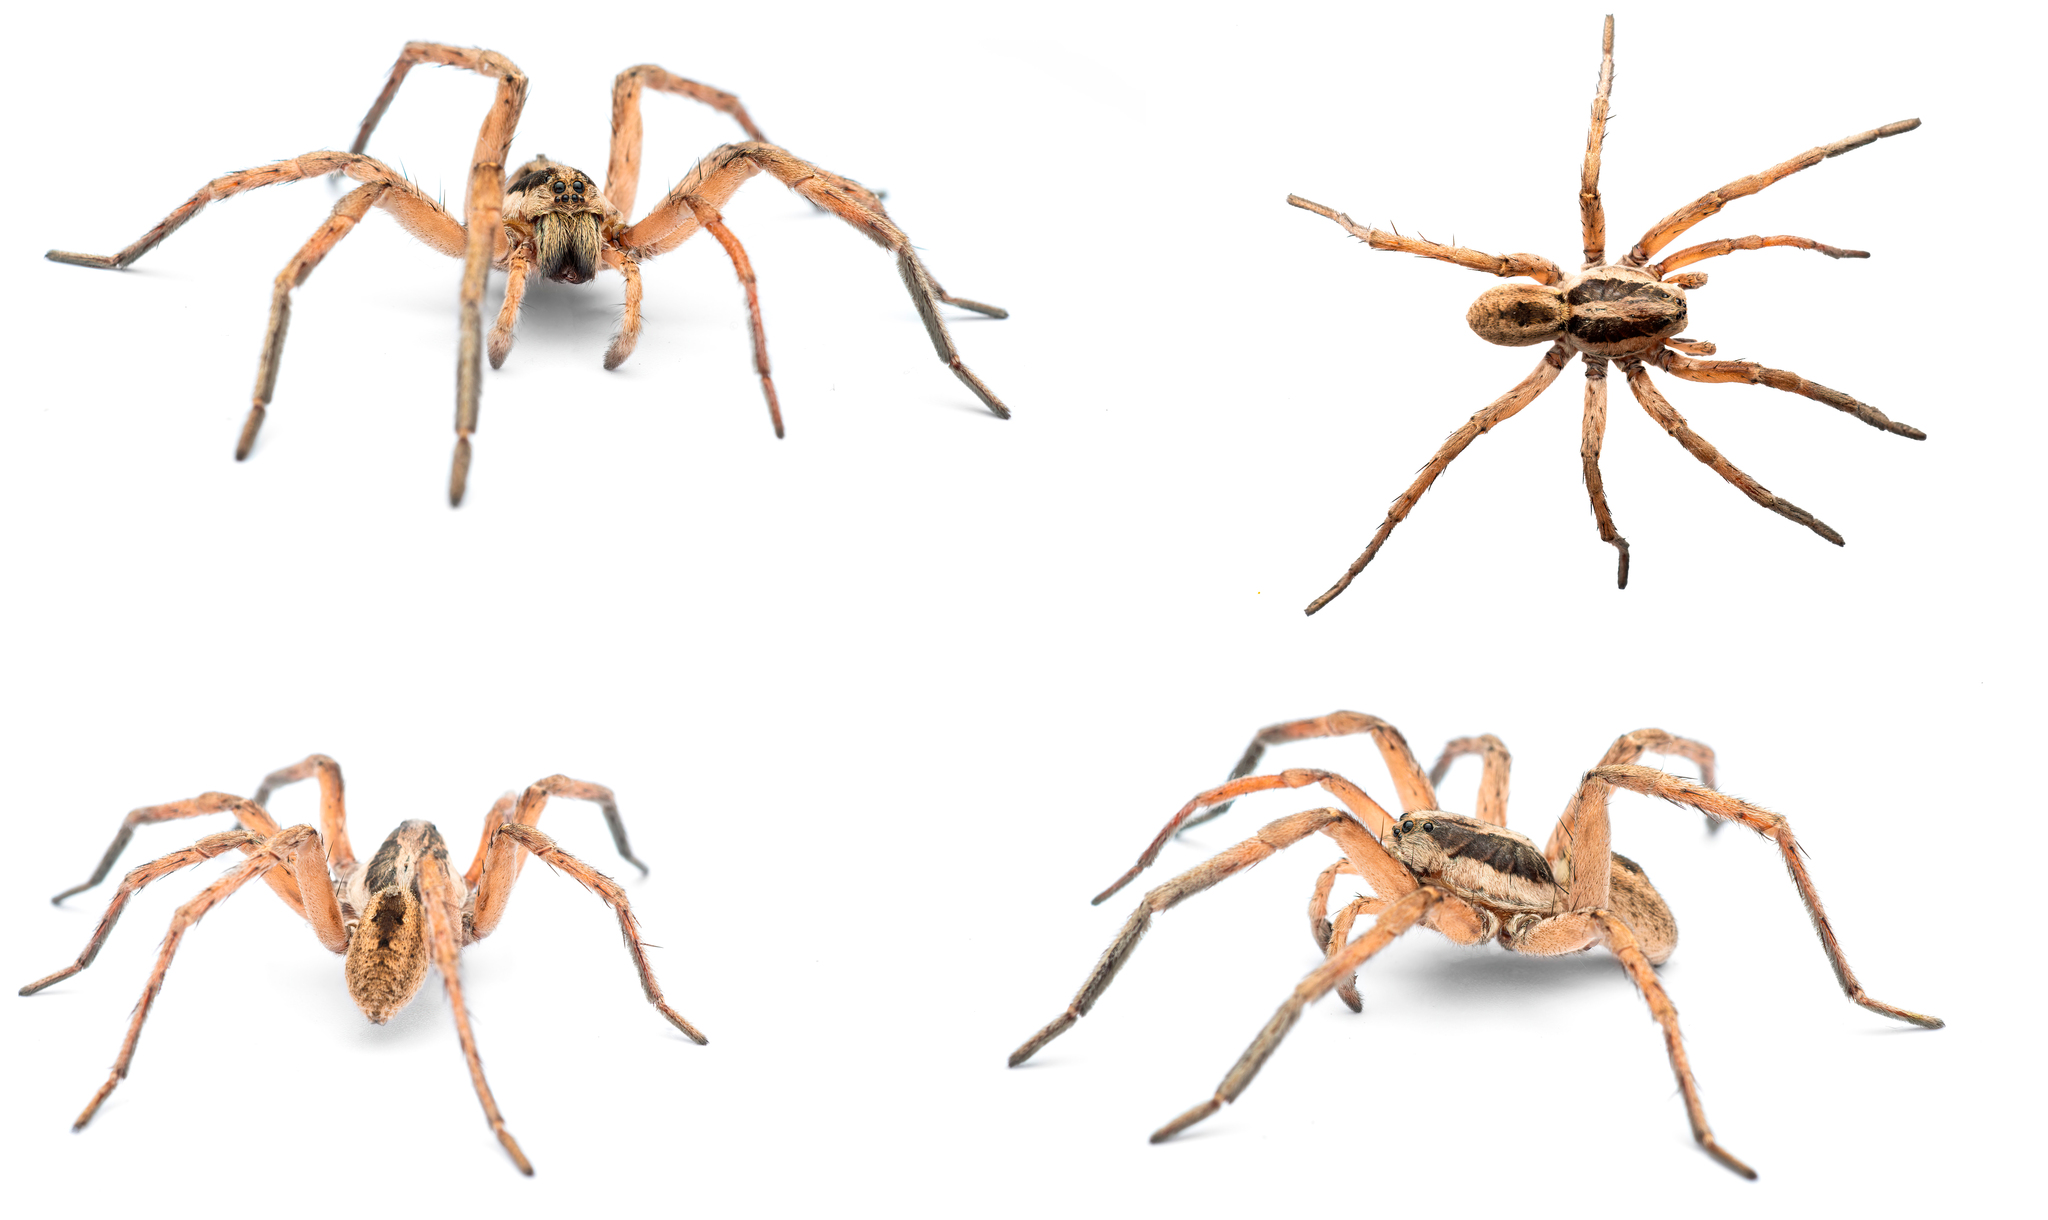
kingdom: Animalia
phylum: Arthropoda
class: Arachnida
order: Araneae
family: Lycosidae
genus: Hogna
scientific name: Hogna radiata
